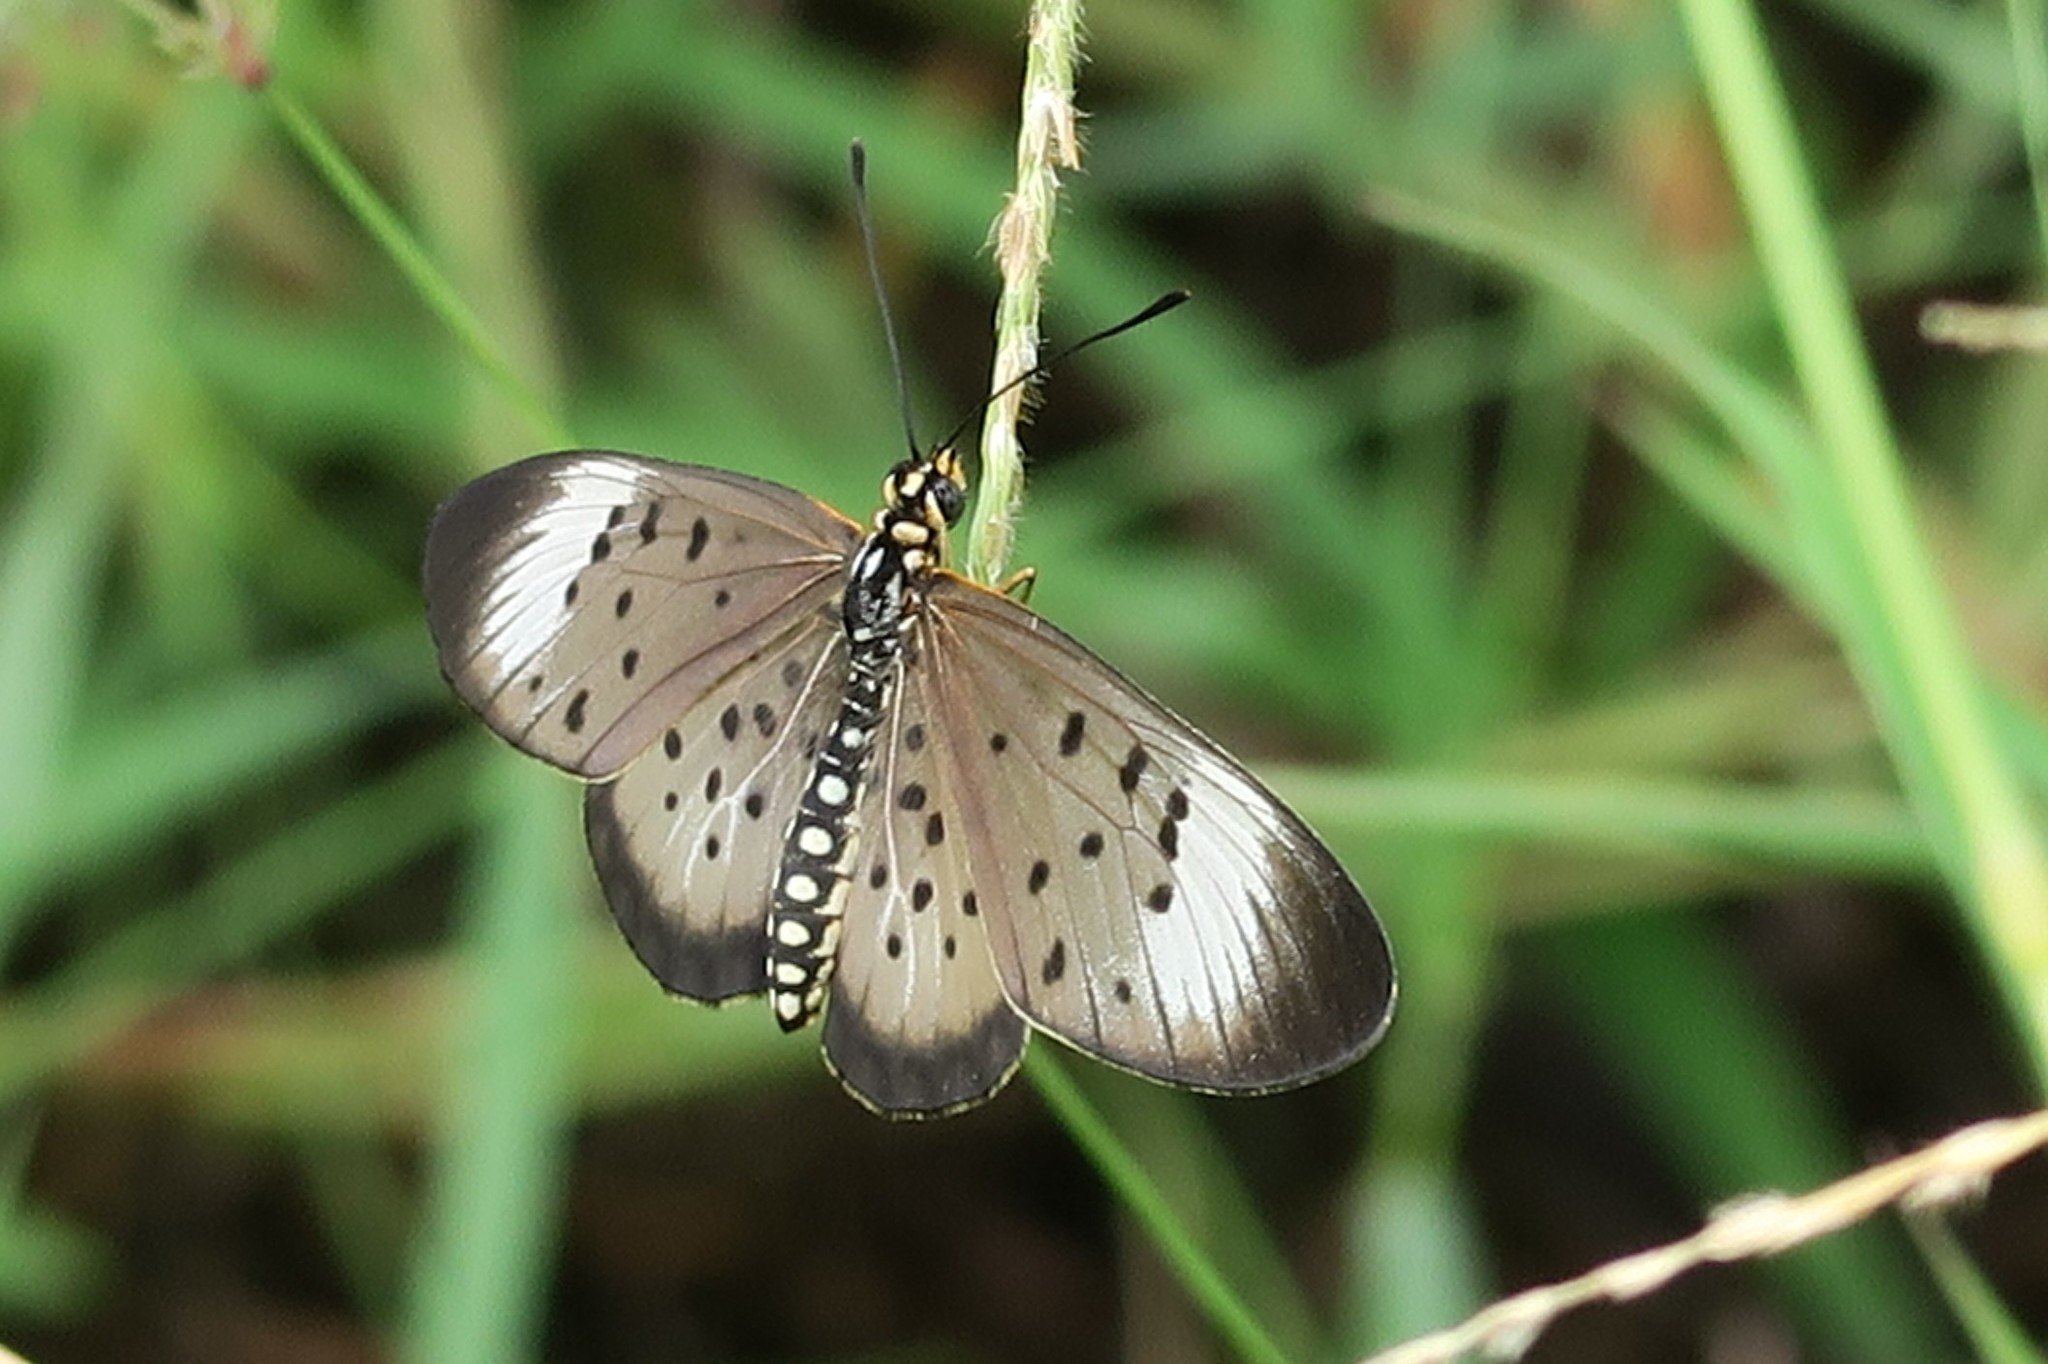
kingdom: Animalia
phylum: Arthropoda
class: Insecta
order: Lepidoptera
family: Nymphalidae
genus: Stephenia
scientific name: Stephenia
